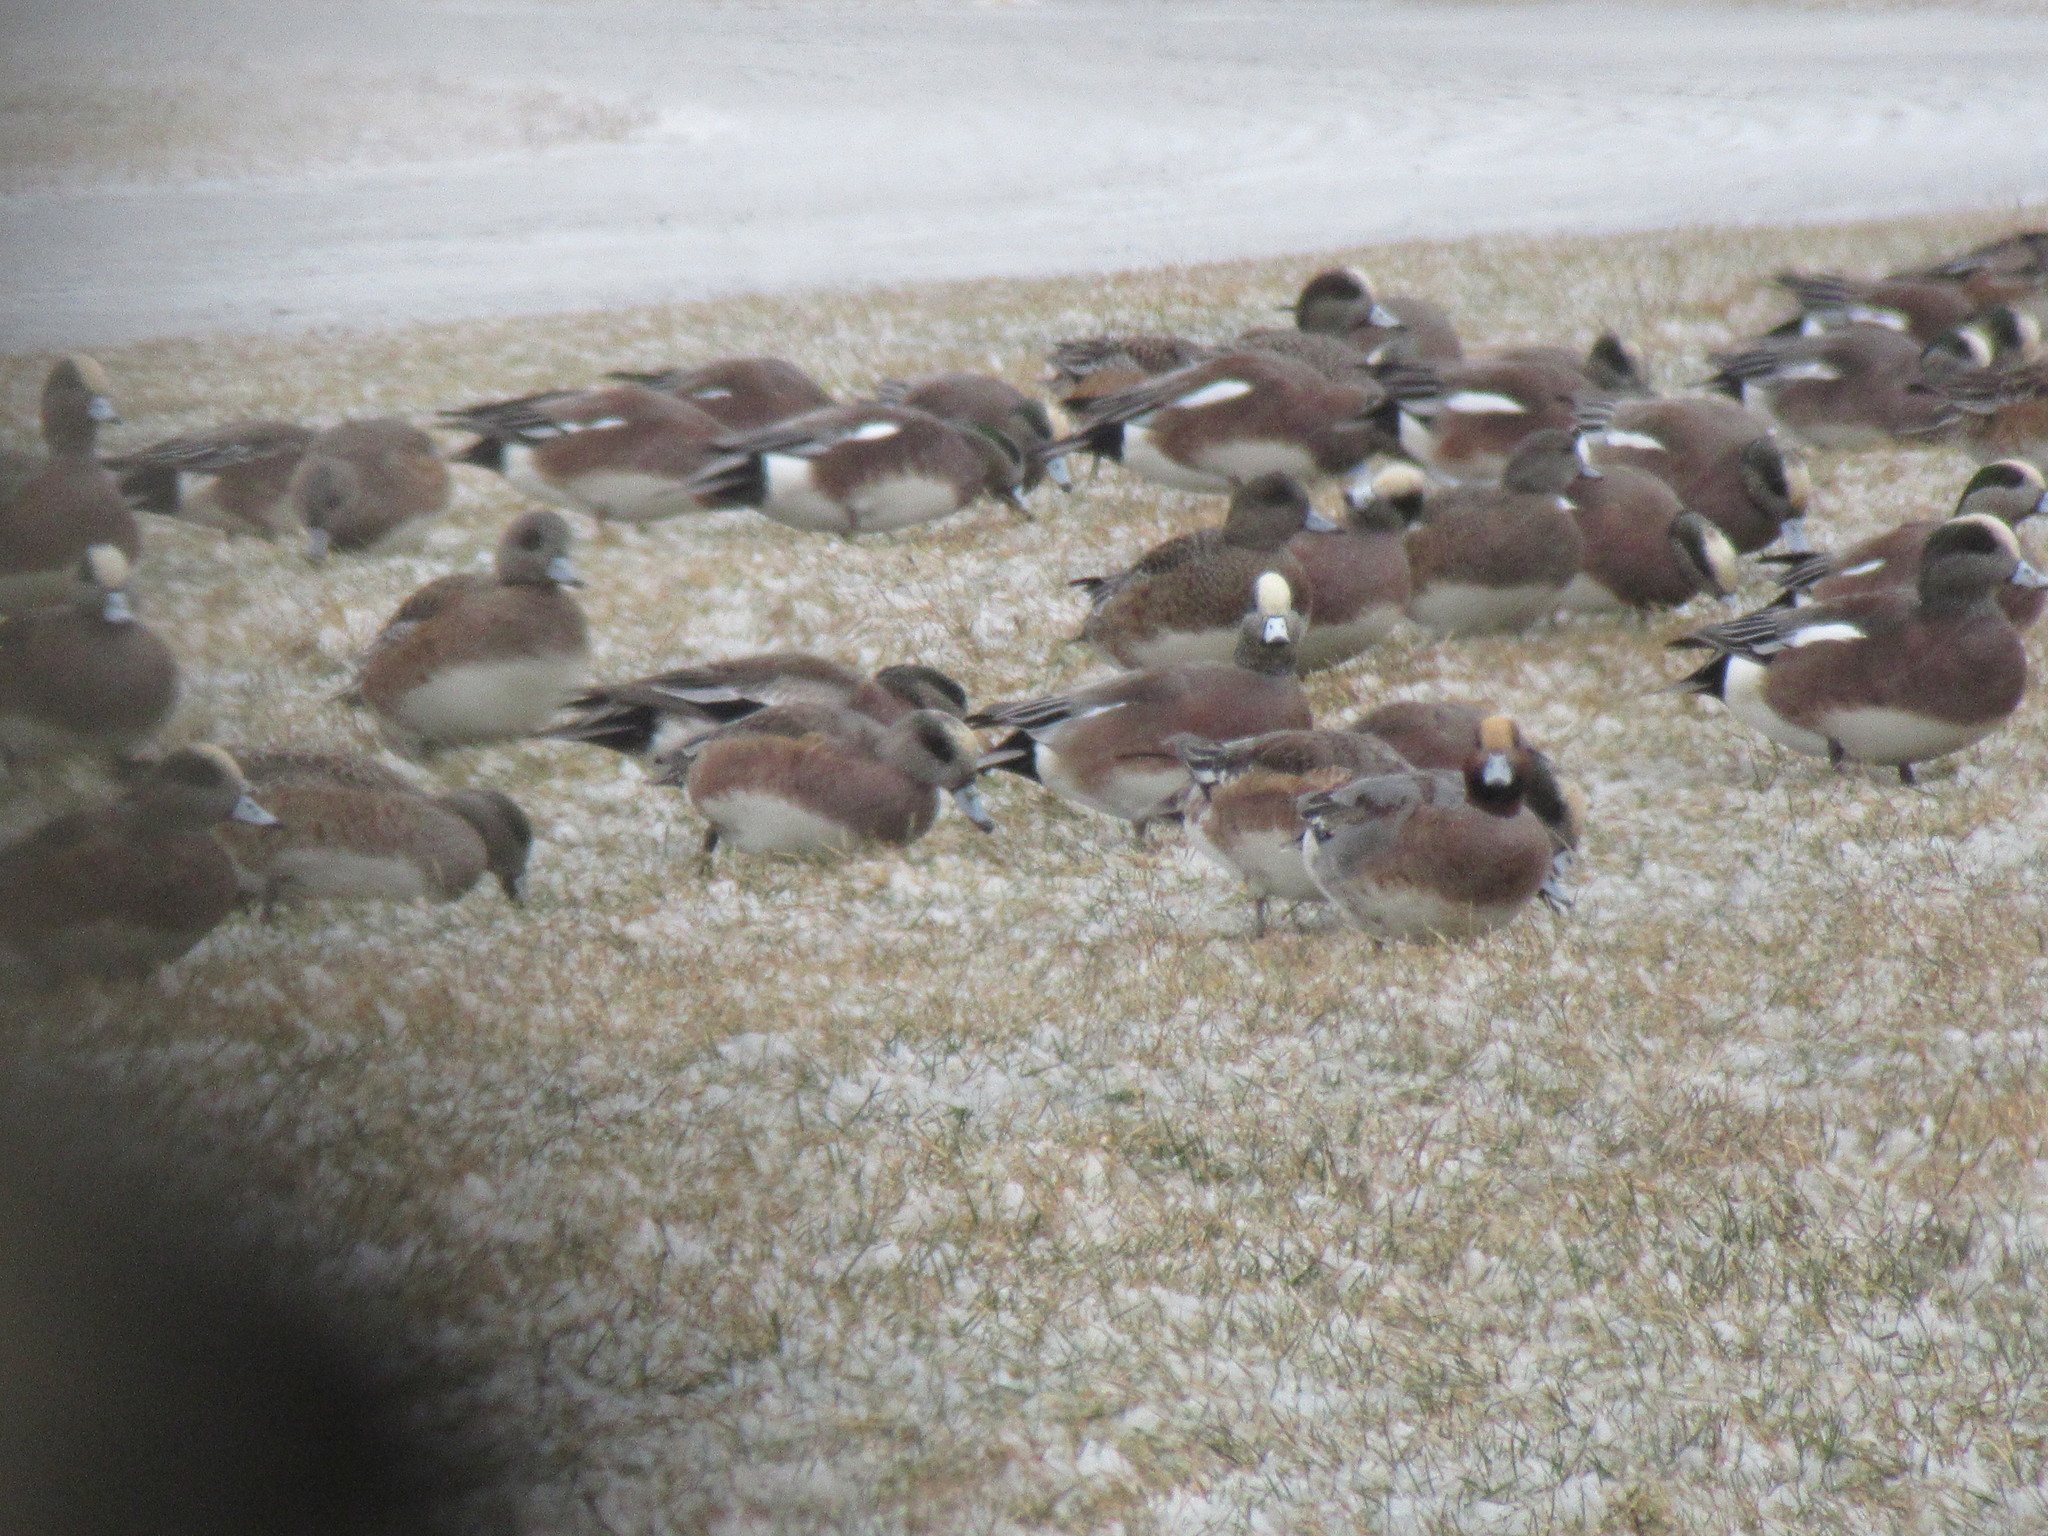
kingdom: Animalia
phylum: Chordata
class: Aves
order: Anseriformes
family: Anatidae
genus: Mareca
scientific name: Mareca penelope
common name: Eurasian wigeon
